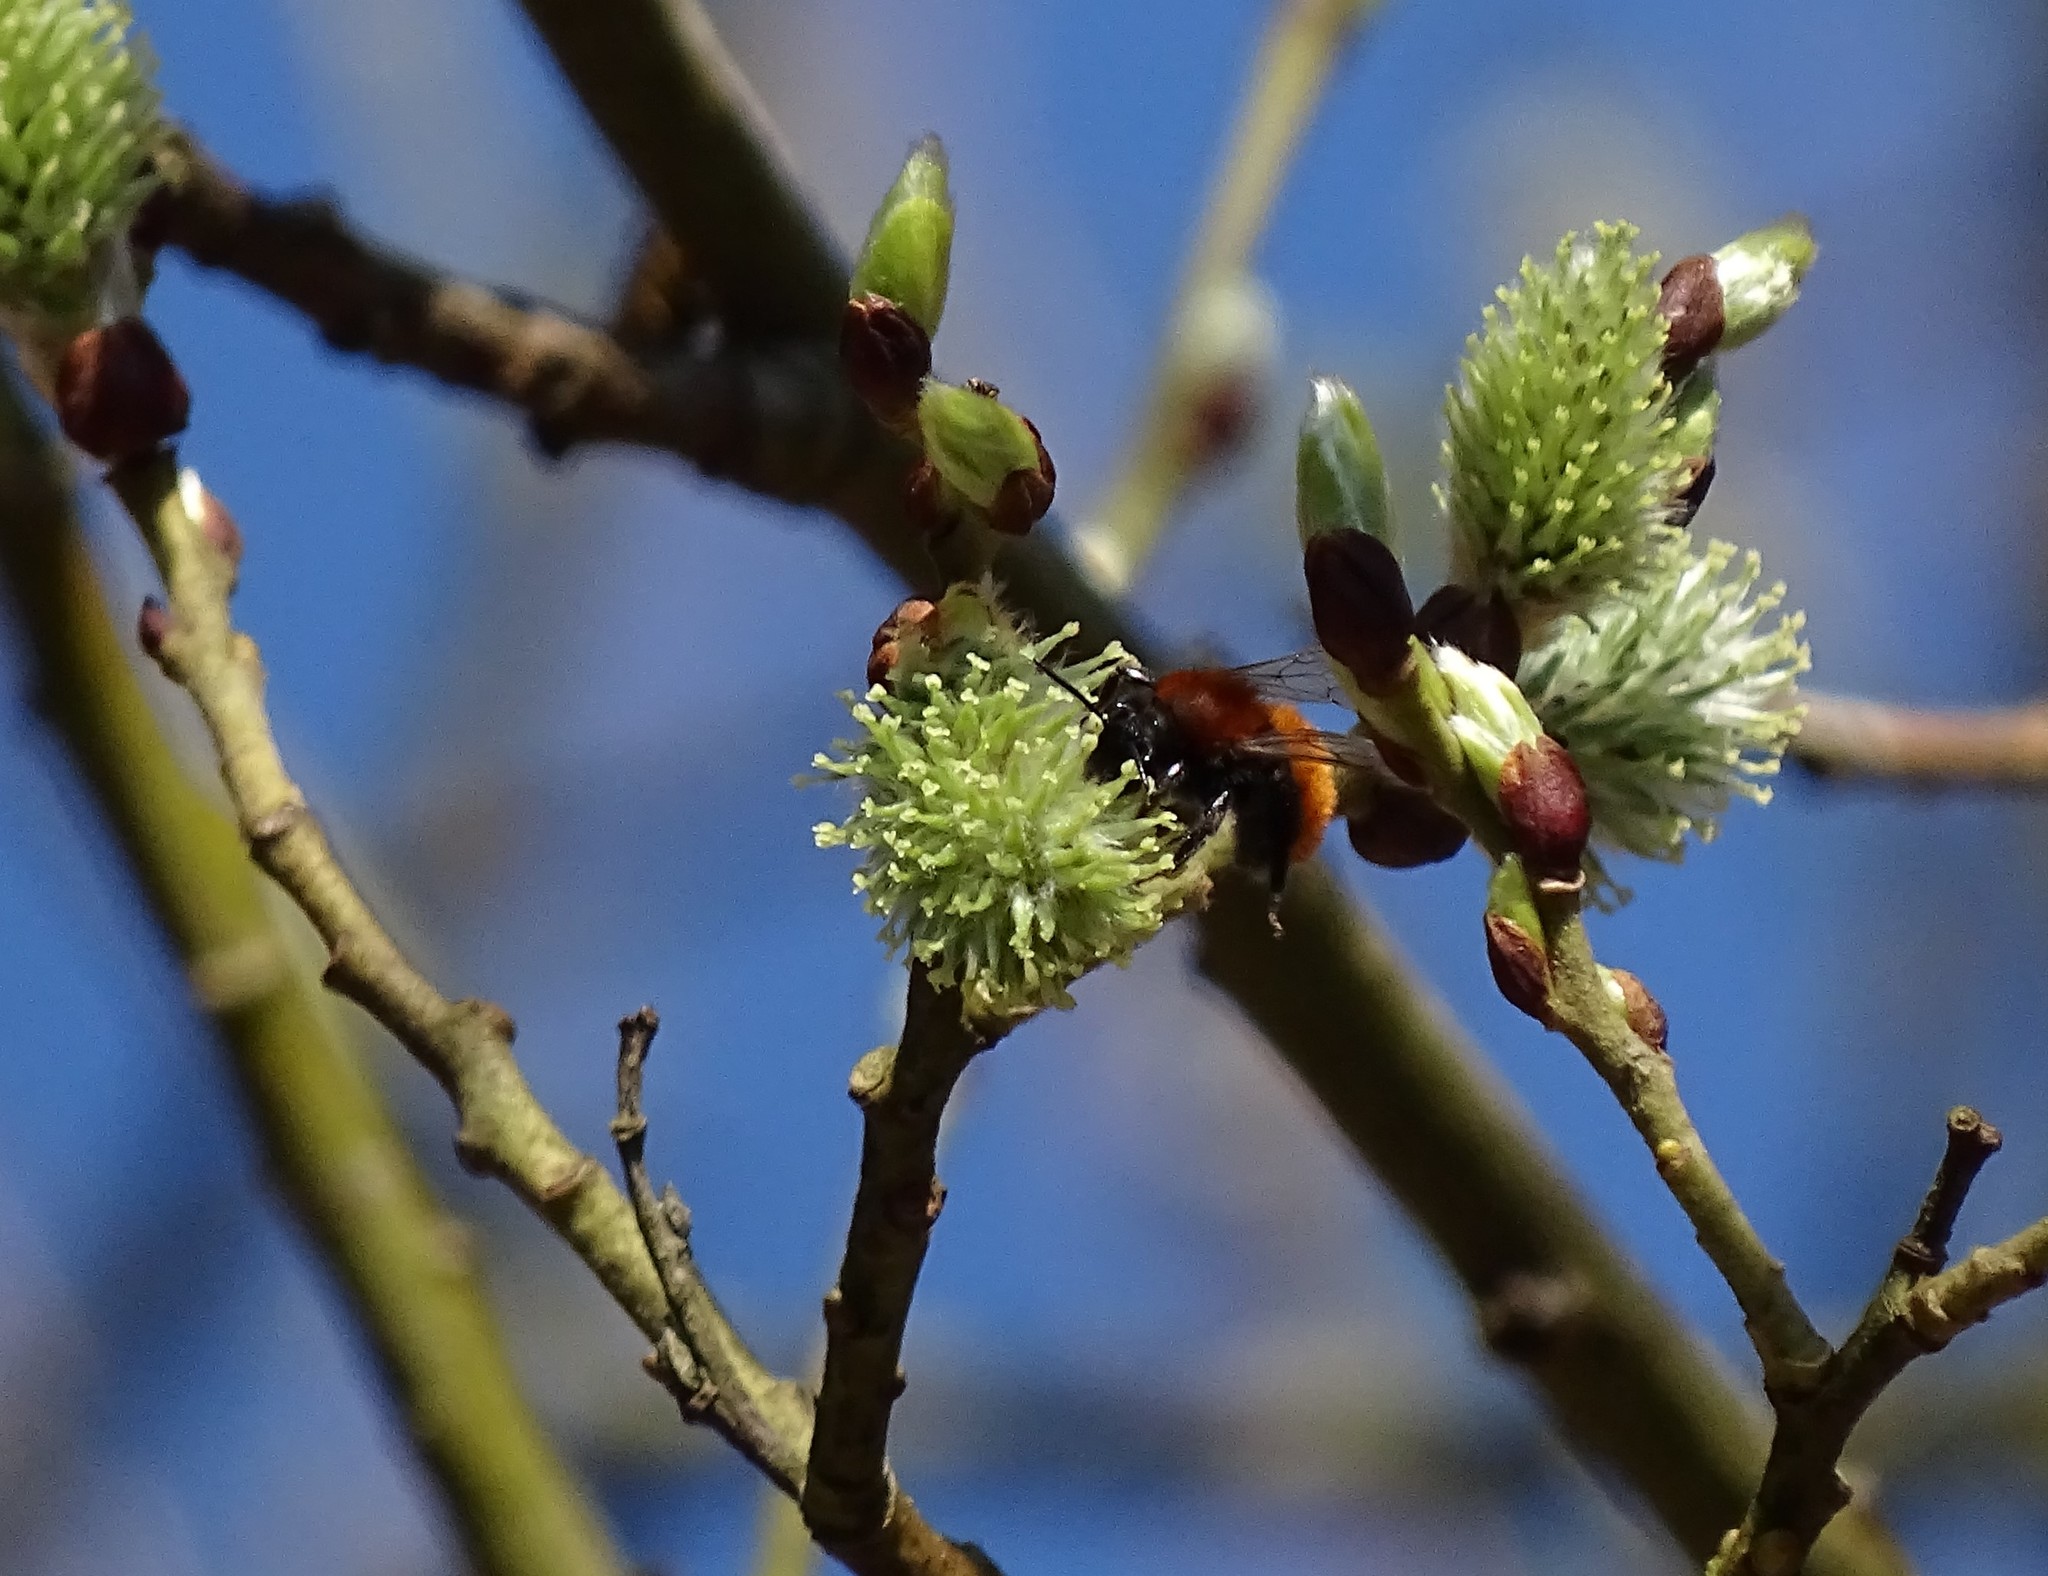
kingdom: Animalia
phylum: Arthropoda
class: Insecta
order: Hymenoptera
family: Andrenidae
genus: Andrena
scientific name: Andrena fulva
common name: Tawny mining bee
